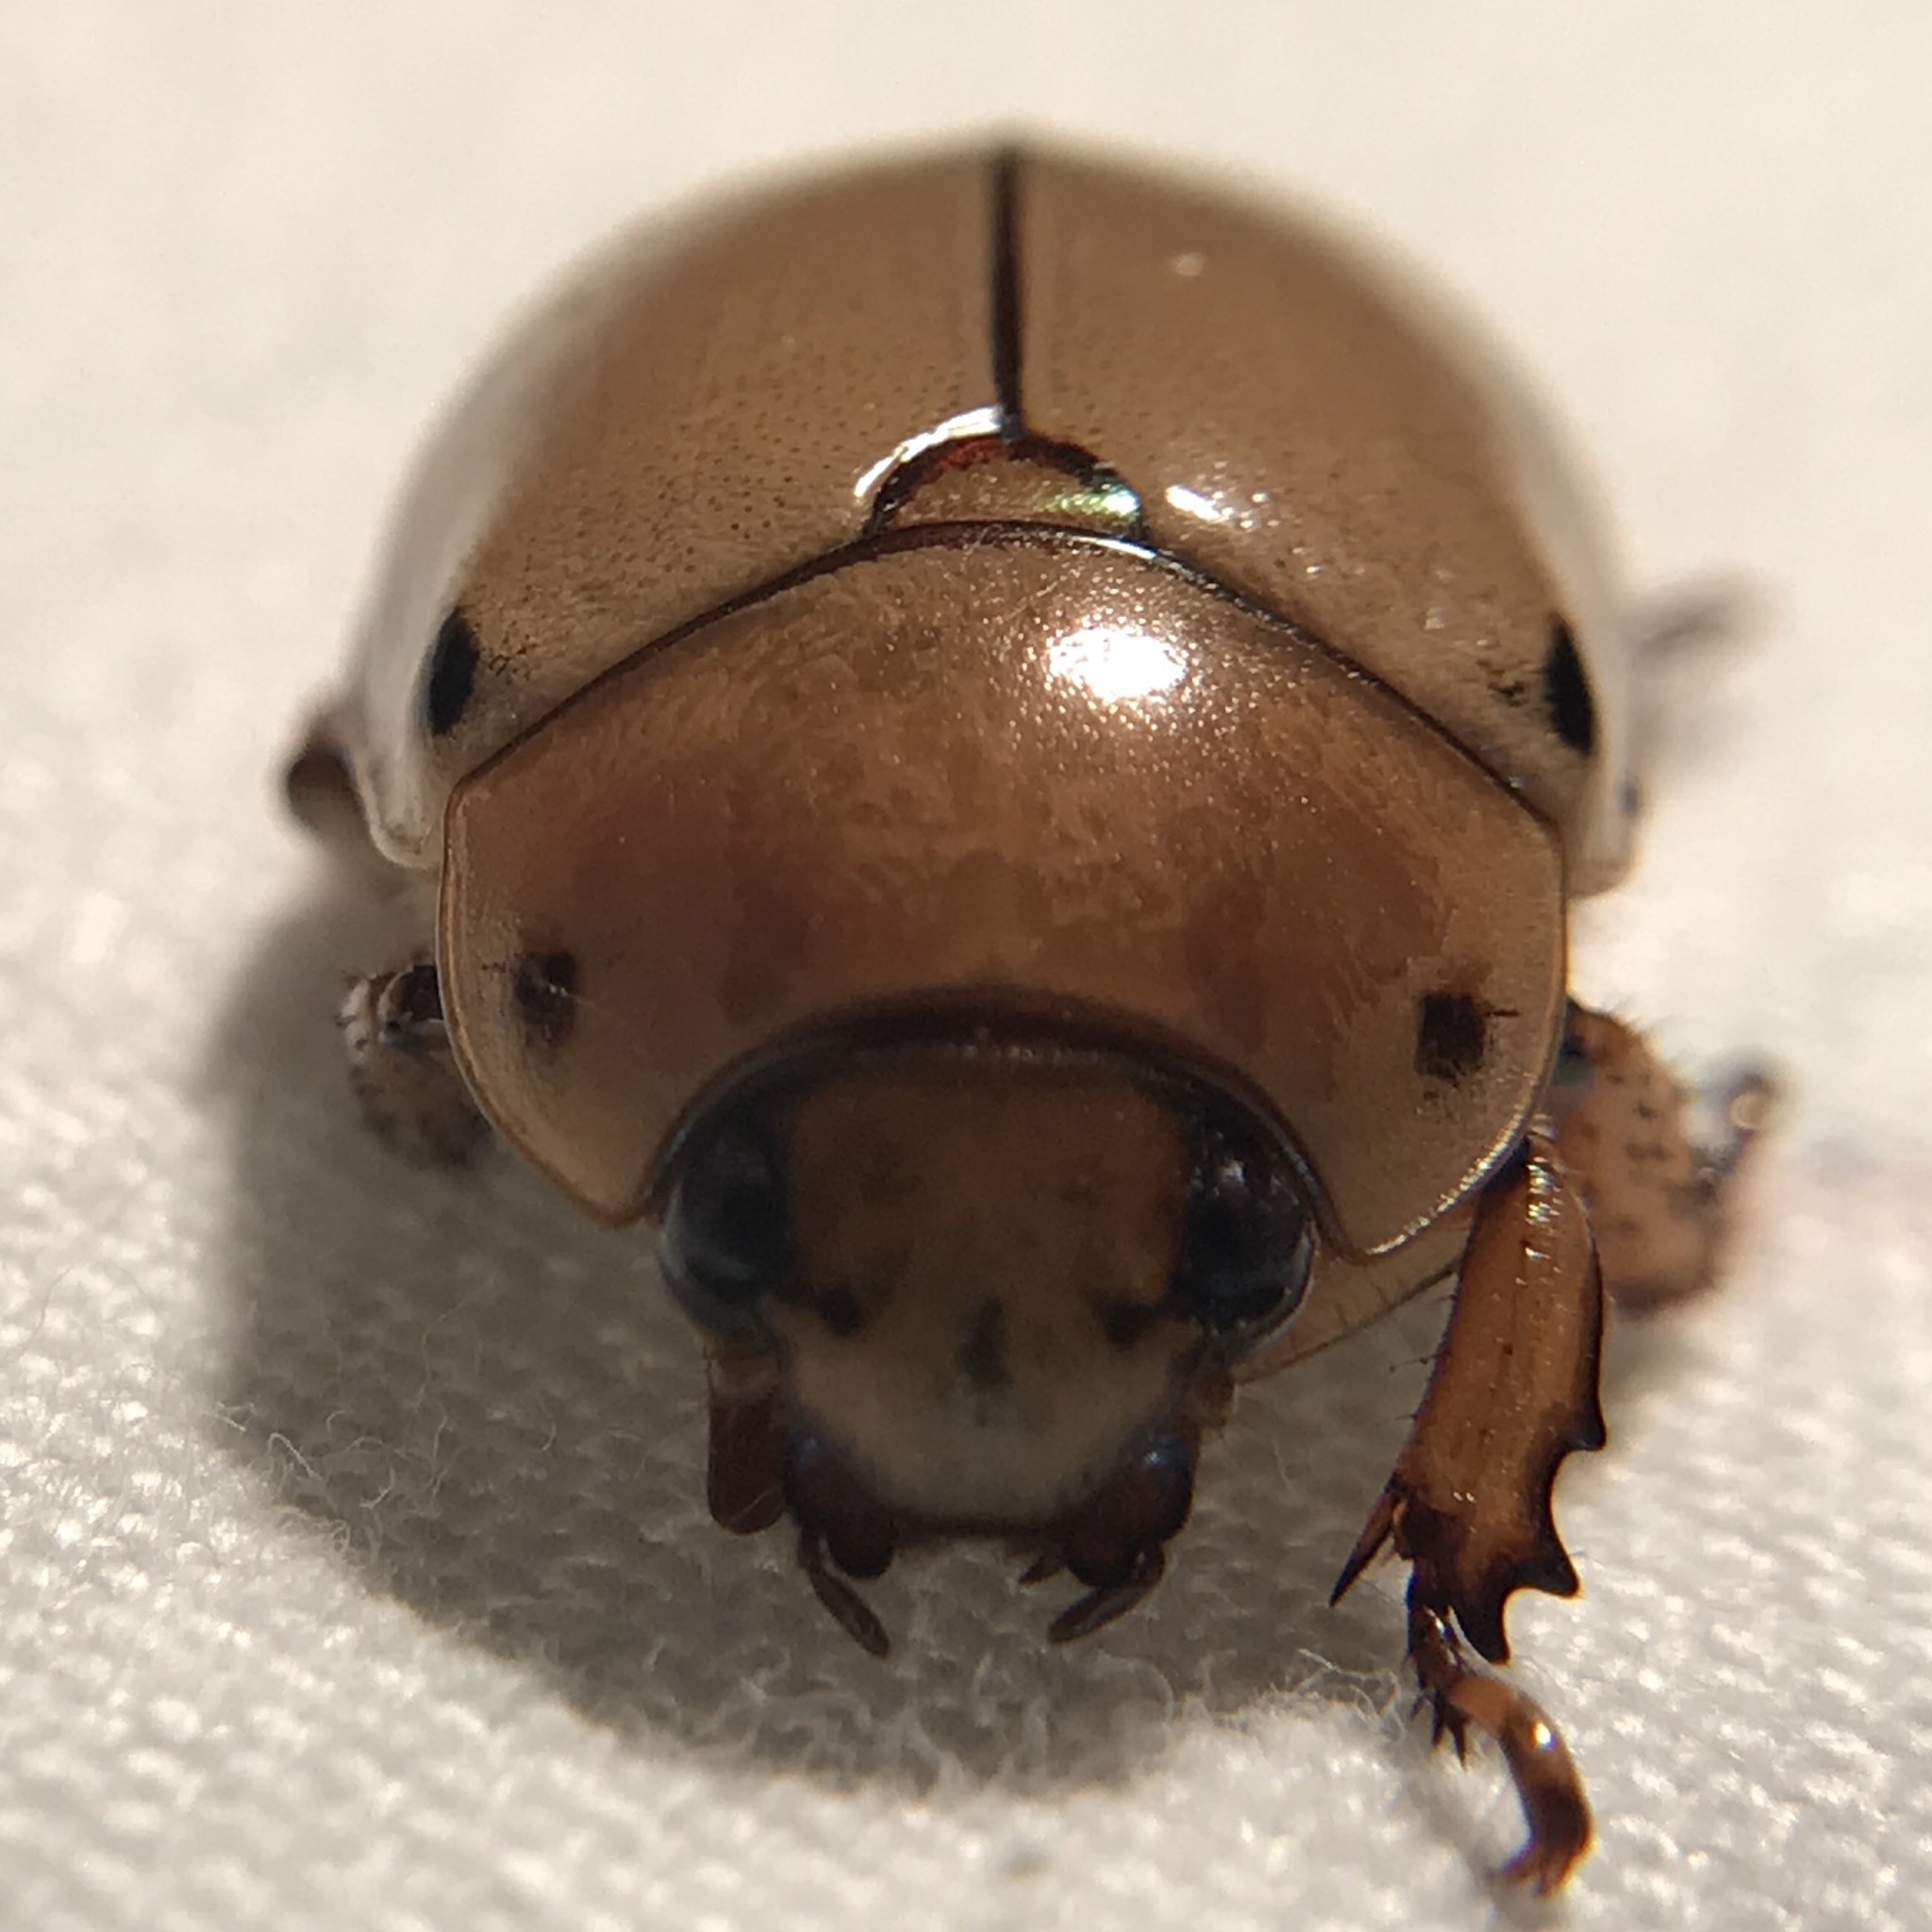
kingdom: Animalia
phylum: Arthropoda
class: Insecta
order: Coleoptera
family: Scarabaeidae
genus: Pelidnota
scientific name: Pelidnota punctata
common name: Grapevine beetle
